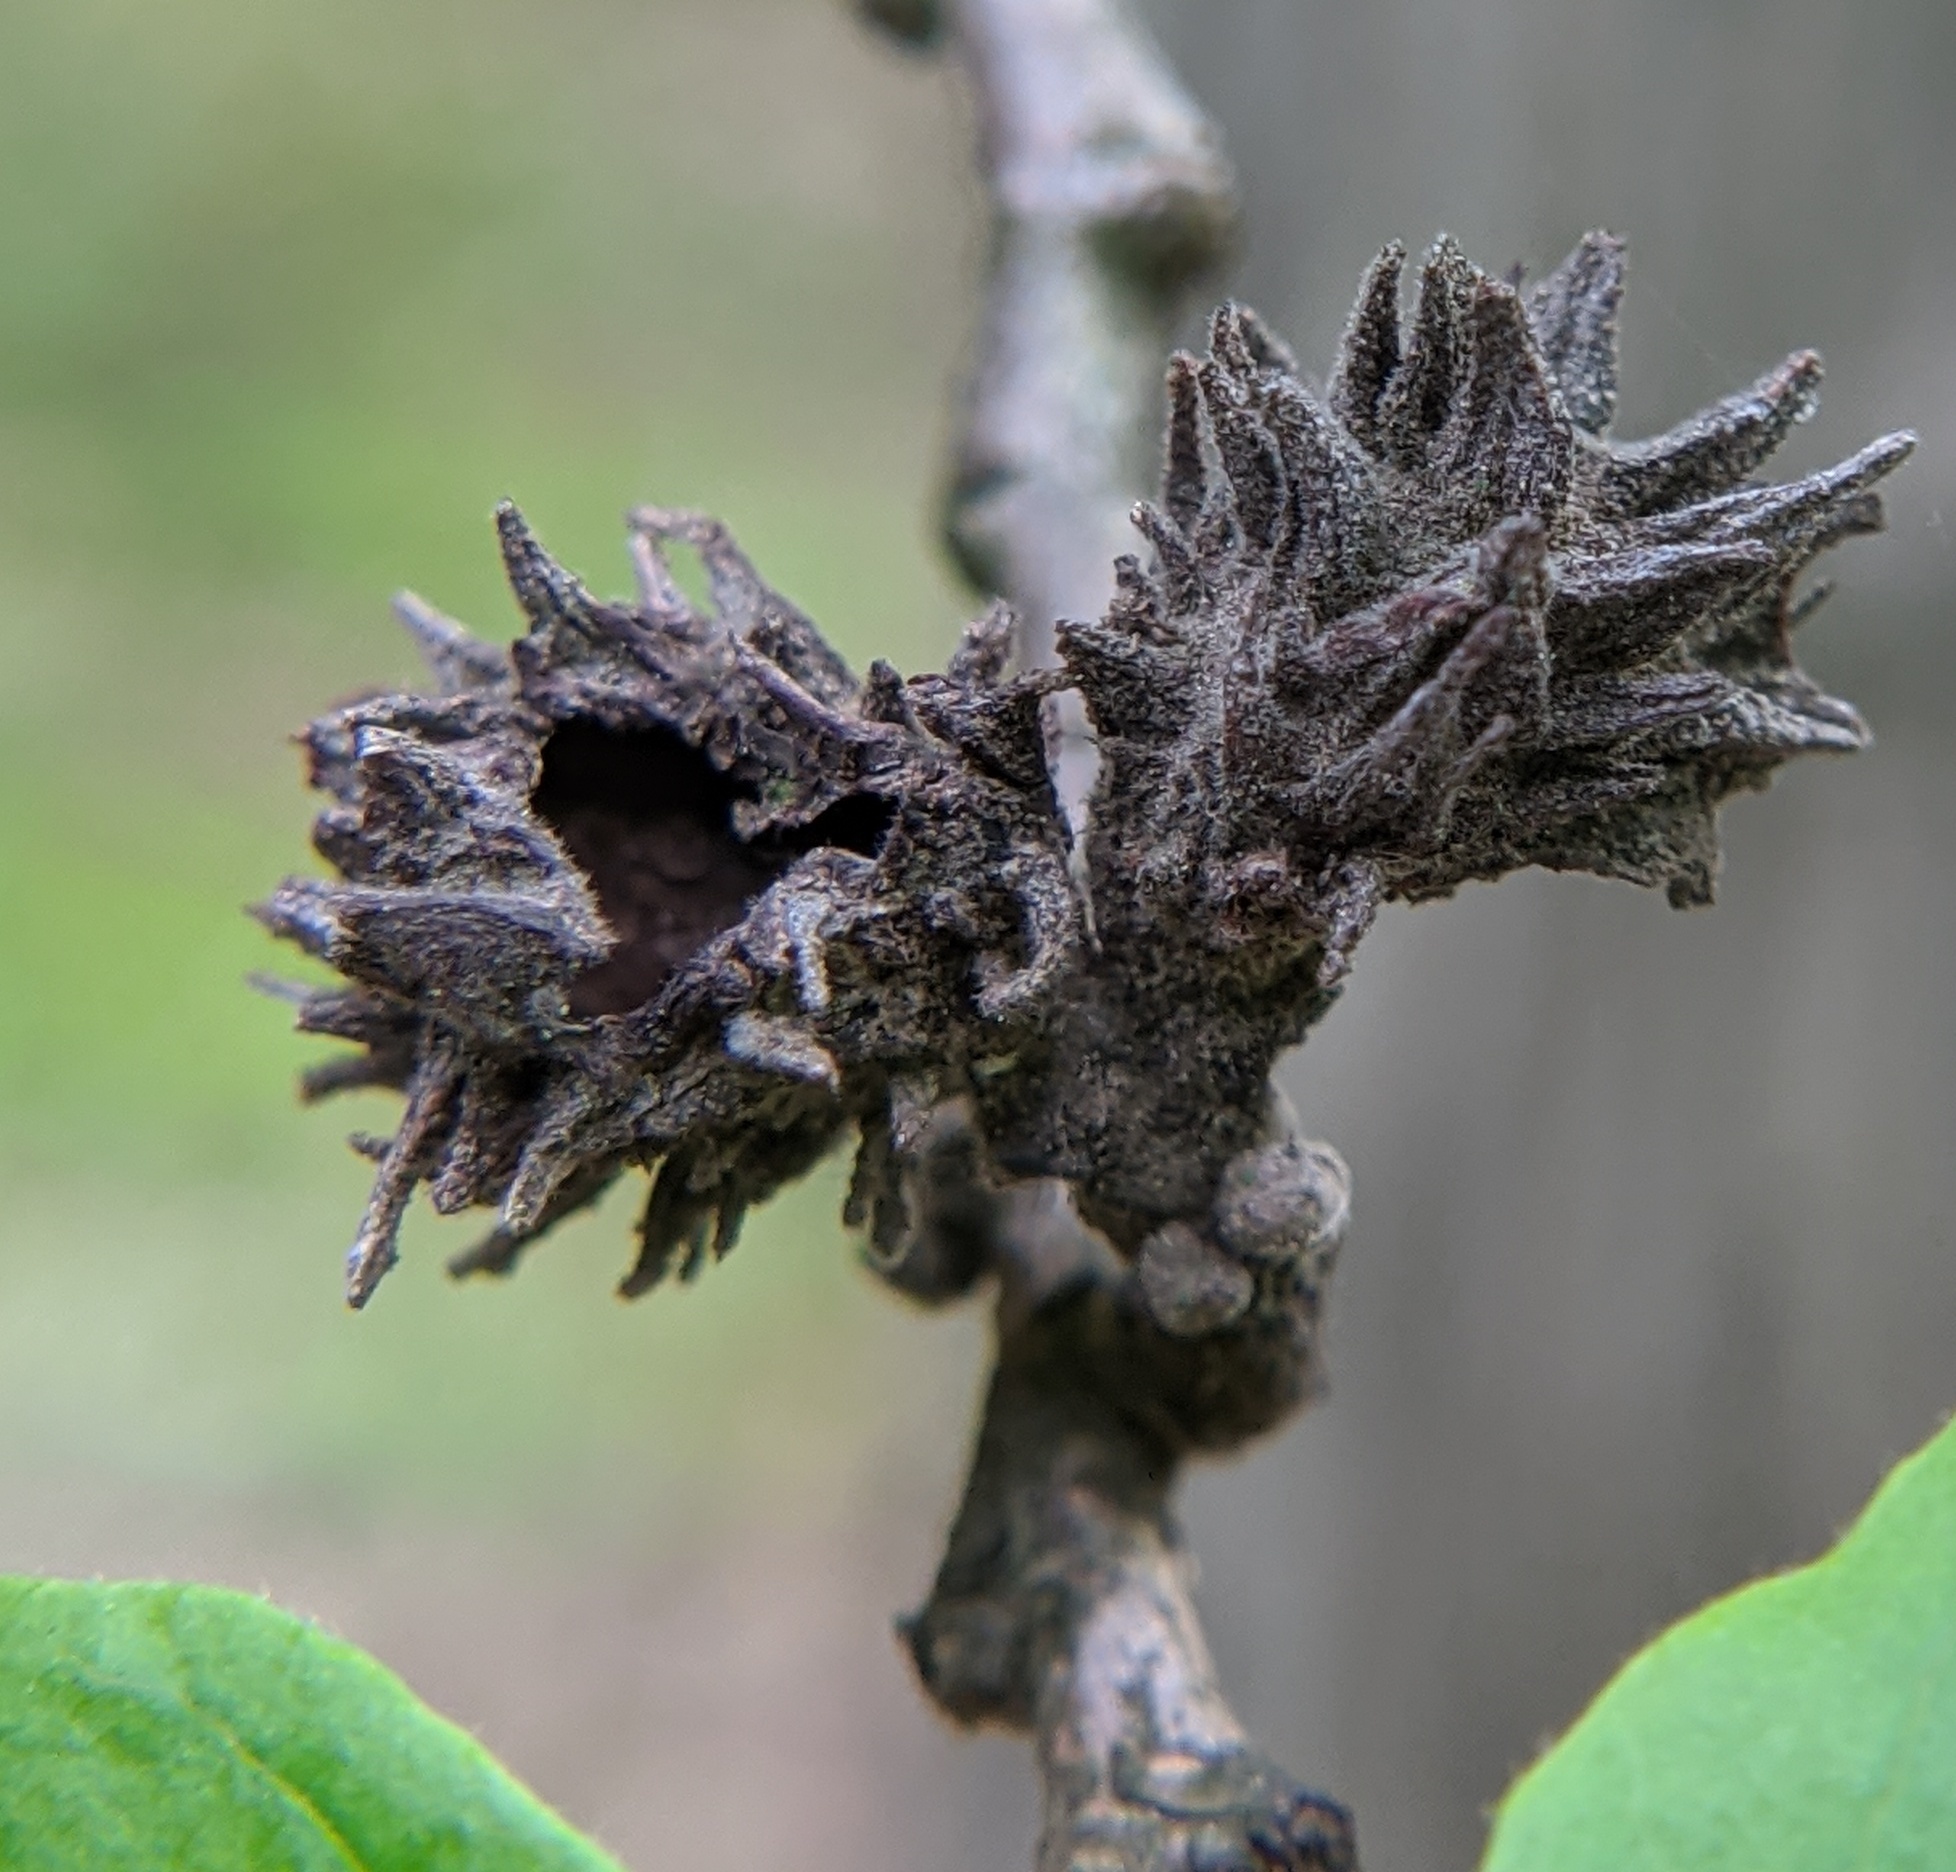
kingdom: Animalia
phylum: Arthropoda
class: Insecta
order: Hemiptera
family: Aphididae
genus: Hamamelistes
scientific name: Hamamelistes spinosus
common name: Witch hazel gall aphid
